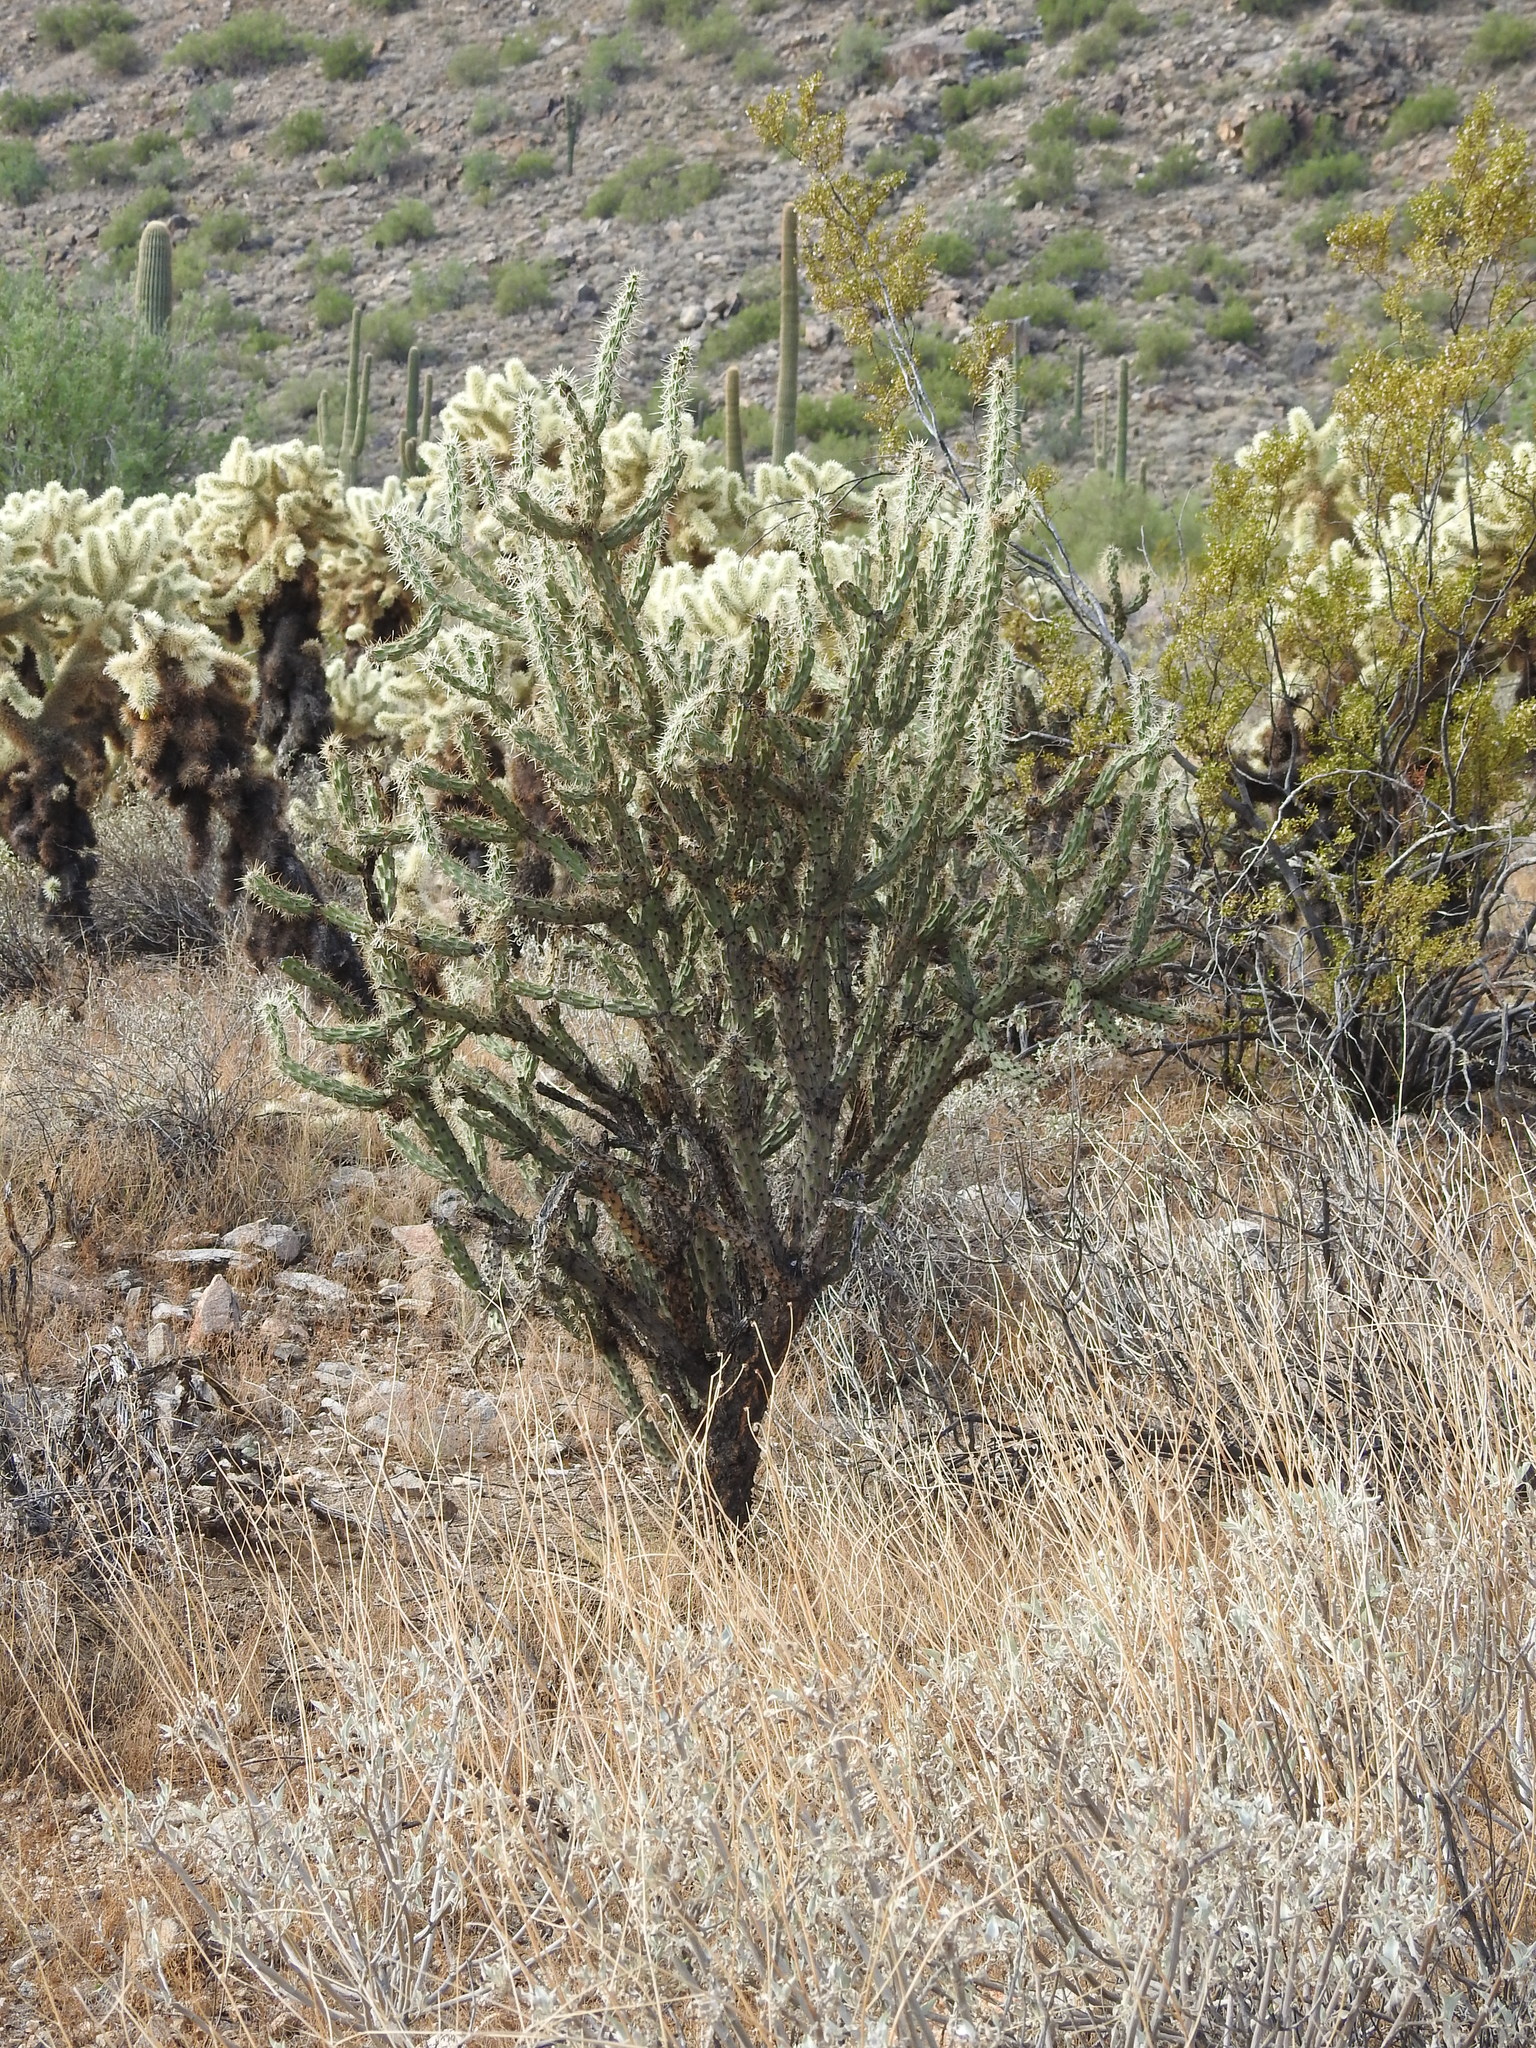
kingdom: Plantae
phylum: Tracheophyta
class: Magnoliopsida
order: Caryophyllales
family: Cactaceae
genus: Cylindropuntia
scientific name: Cylindropuntia acanthocarpa
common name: Buckhorn cholla
